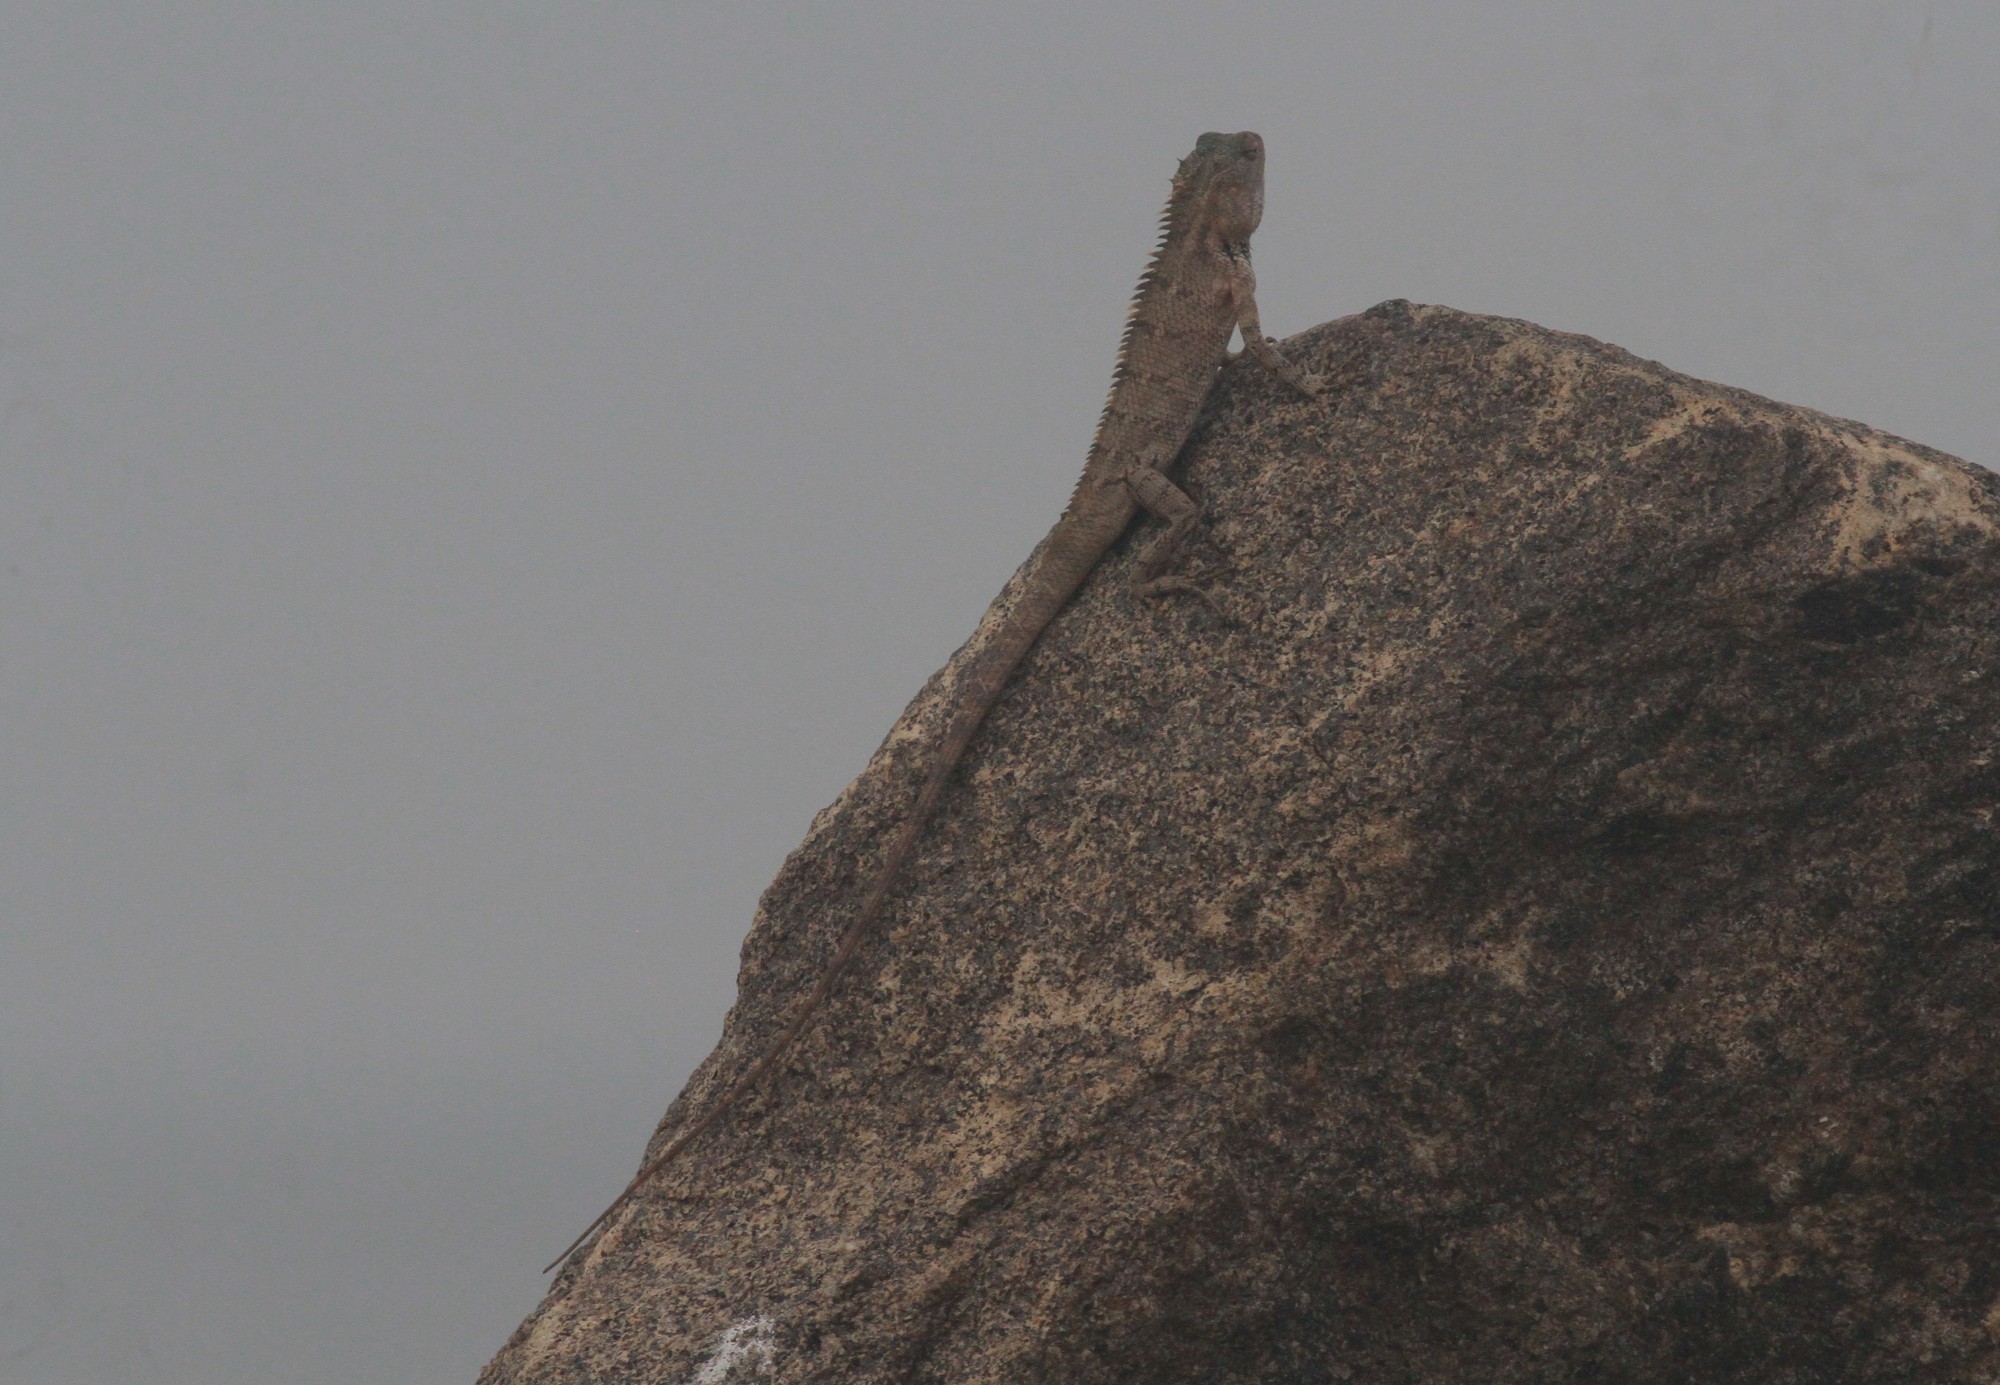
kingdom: Animalia
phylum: Chordata
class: Squamata
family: Agamidae
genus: Calotes
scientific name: Calotes versicolor
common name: Oriental garden lizard
